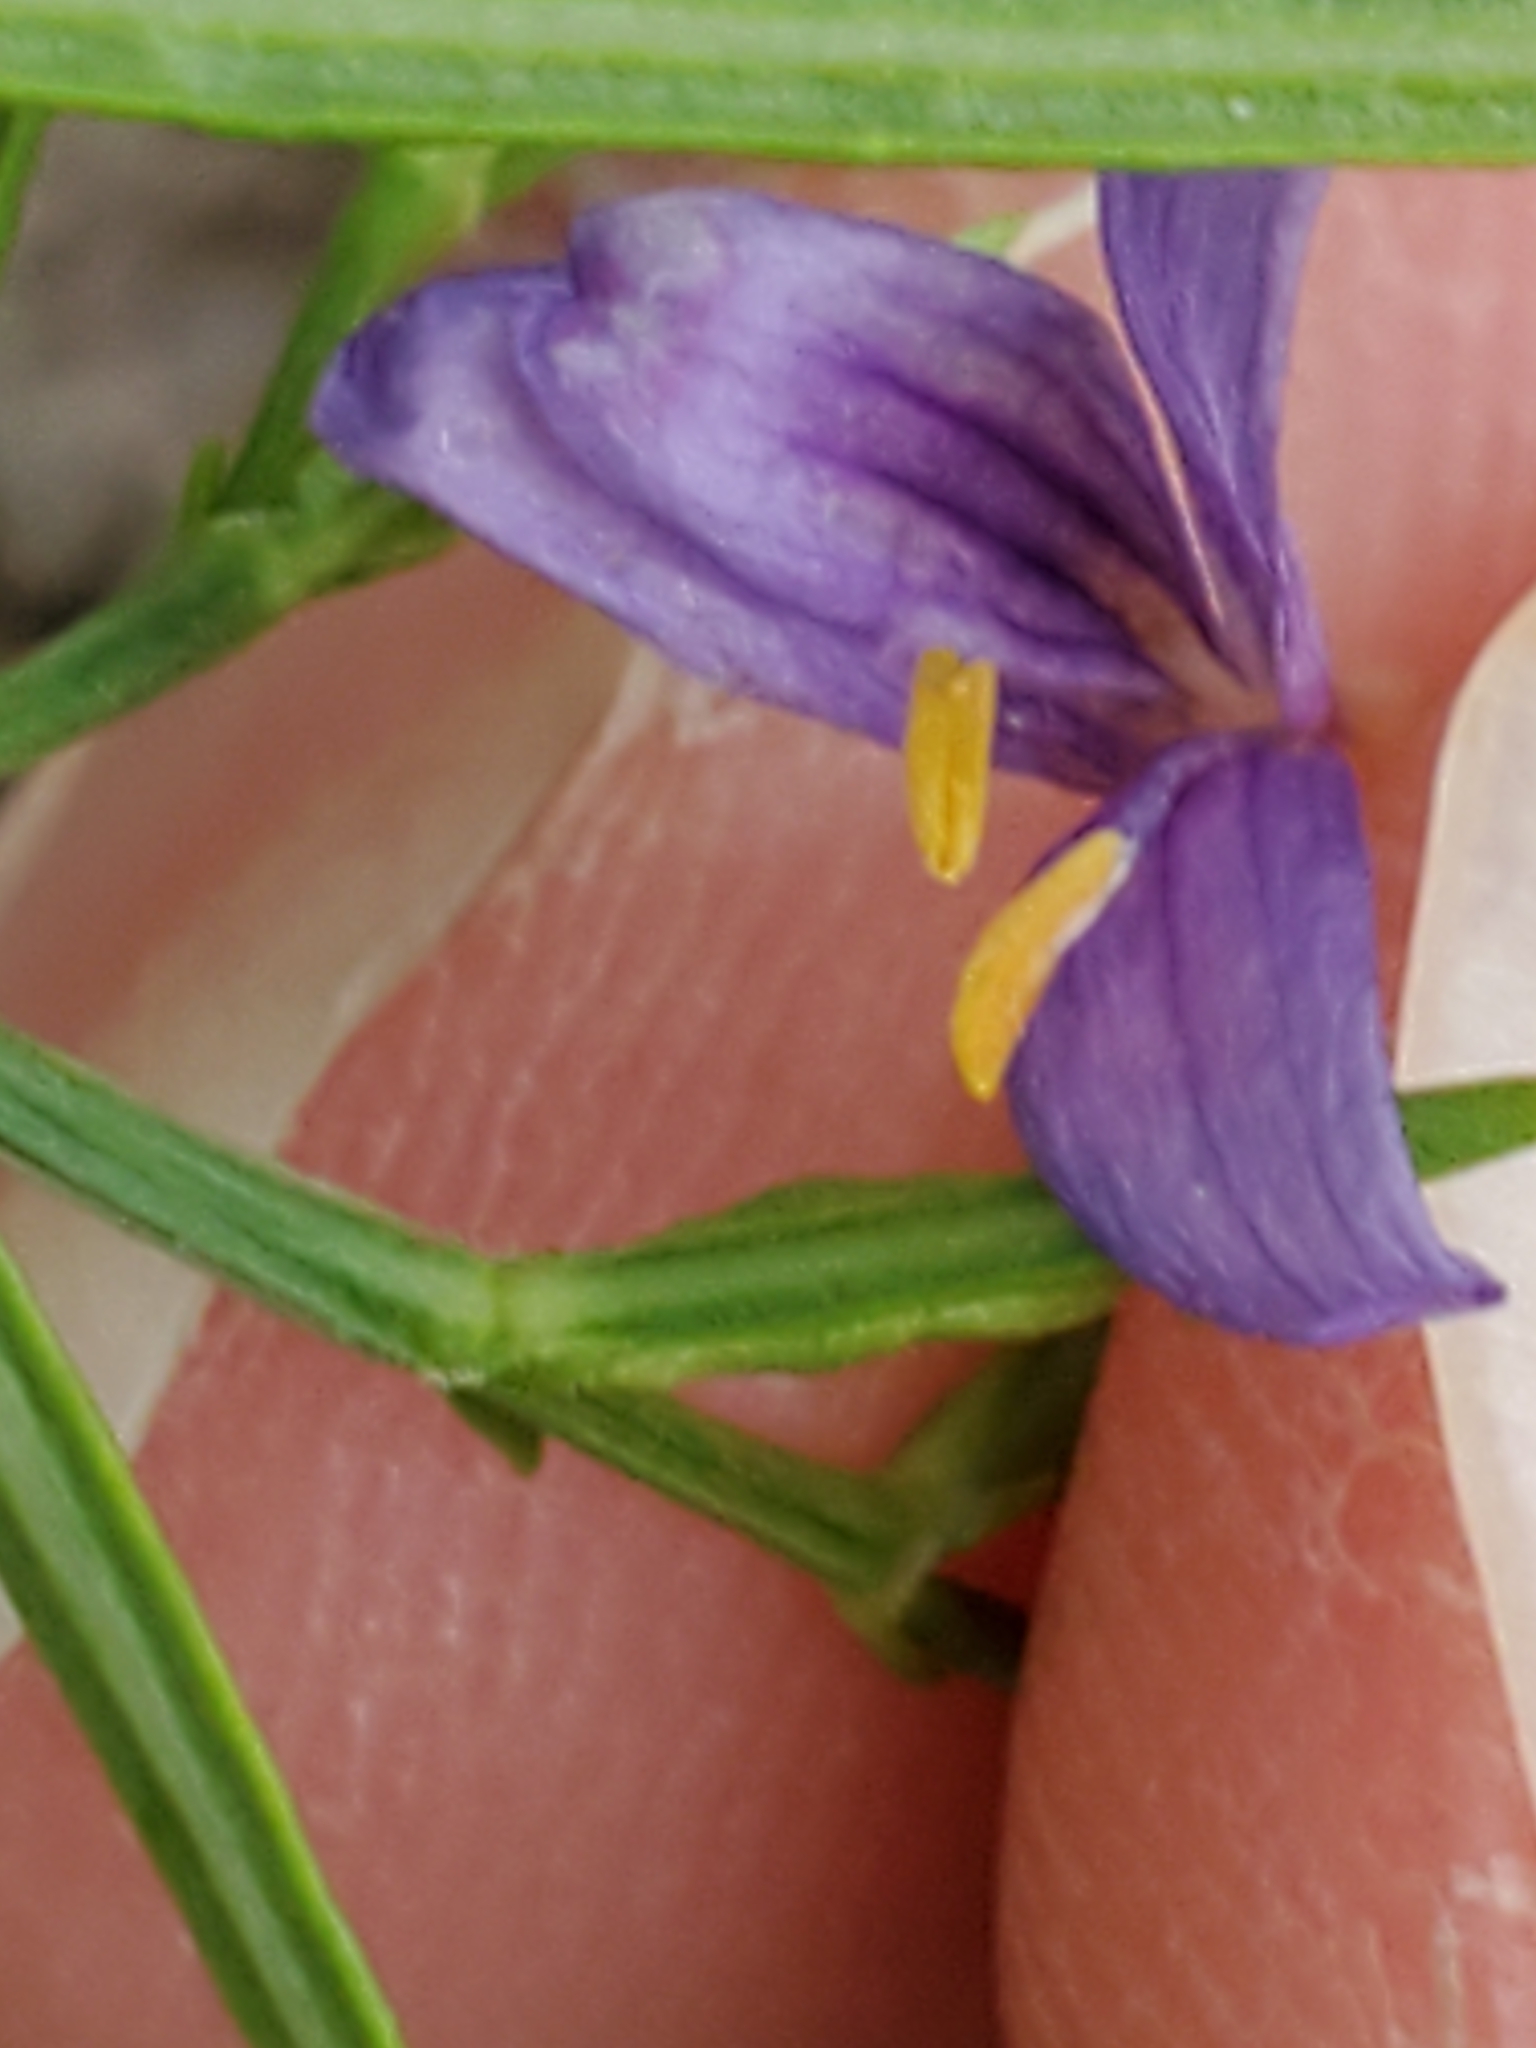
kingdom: Plantae
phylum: Tracheophyta
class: Magnoliopsida
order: Lamiales
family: Acanthaceae
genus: Carlowrightia
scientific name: Carlowrightia linearifolia
